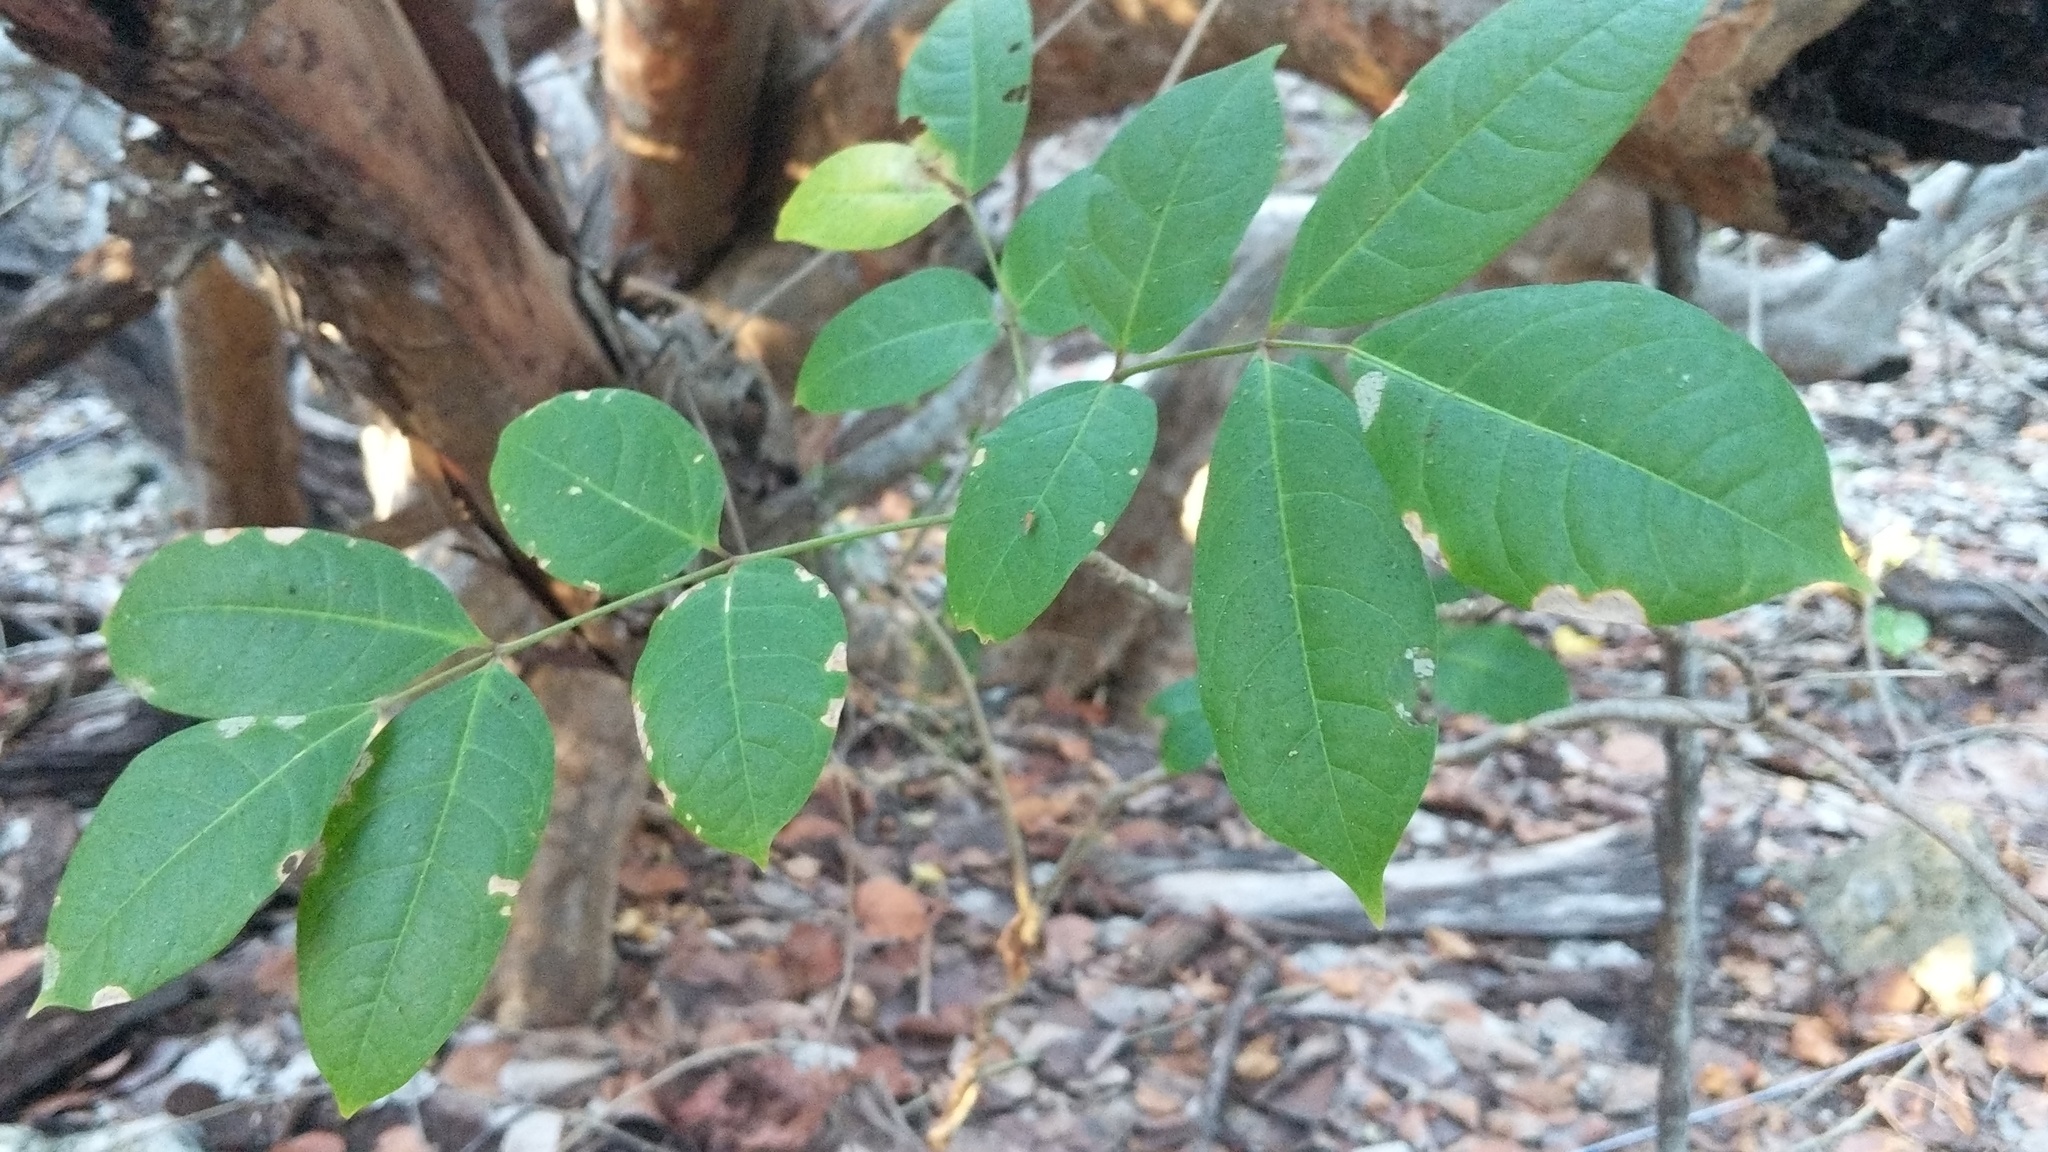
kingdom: Plantae
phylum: Tracheophyta
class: Magnoliopsida
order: Sapindales
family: Burseraceae
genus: Bursera
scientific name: Bursera simaruba
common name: Turpentine tree
